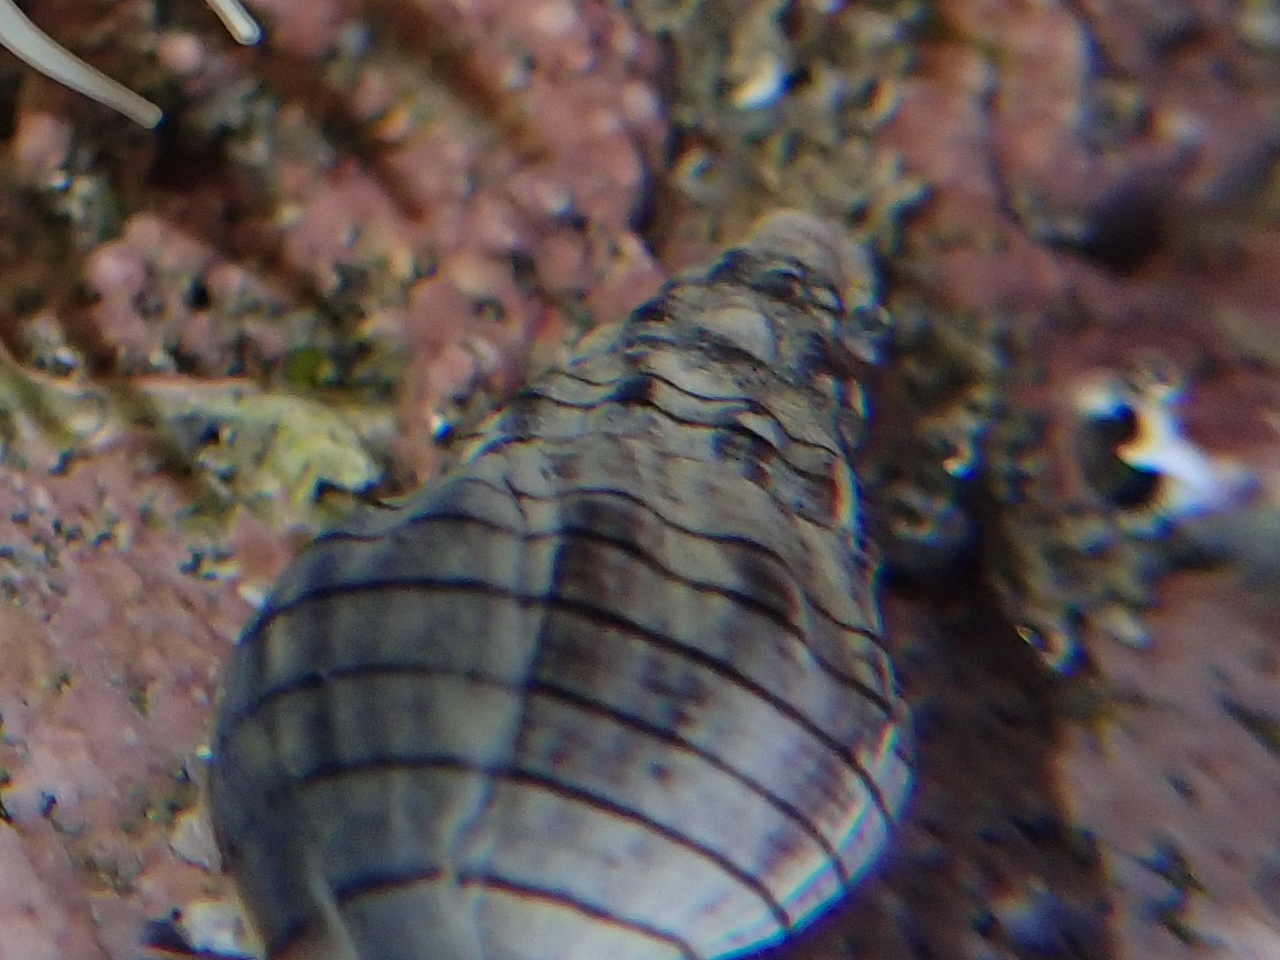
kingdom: Animalia
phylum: Mollusca
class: Gastropoda
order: Neogastropoda
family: Cominellidae
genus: Cominella
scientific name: Cominella virgata
